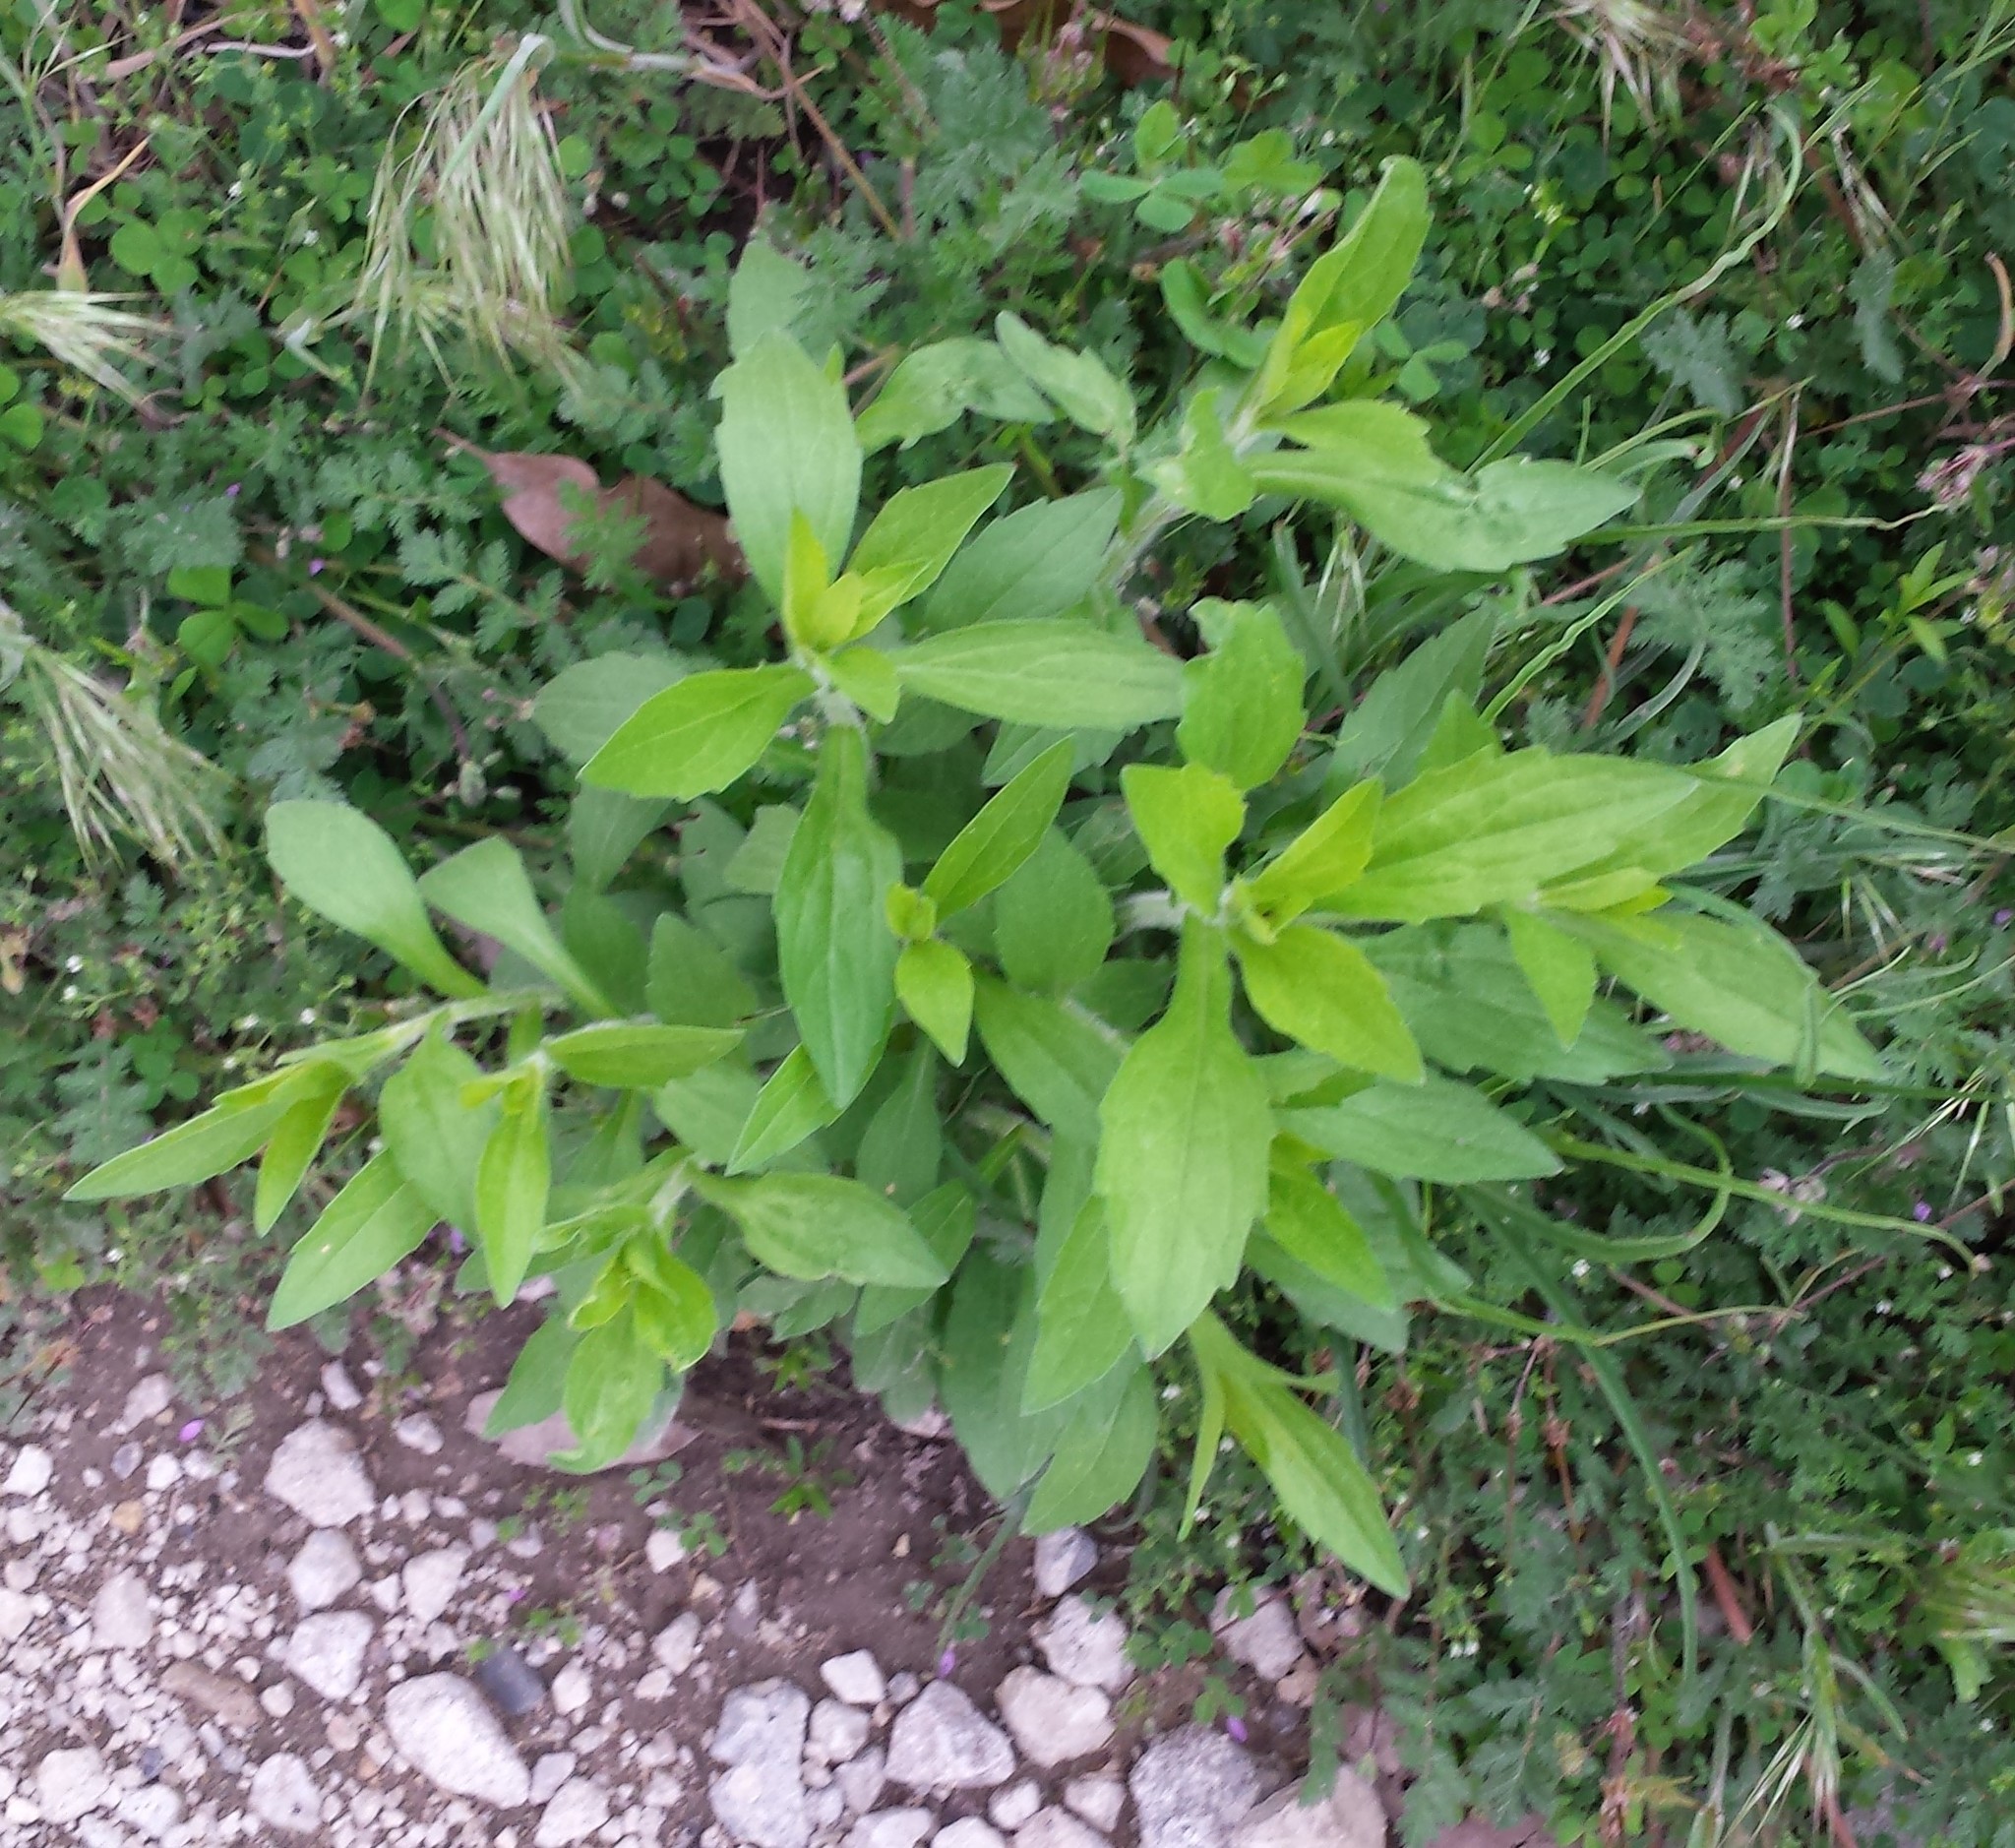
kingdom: Plantae
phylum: Tracheophyta
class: Magnoliopsida
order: Asterales
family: Asteraceae
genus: Erigeron
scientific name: Erigeron annuus
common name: Tall fleabane
